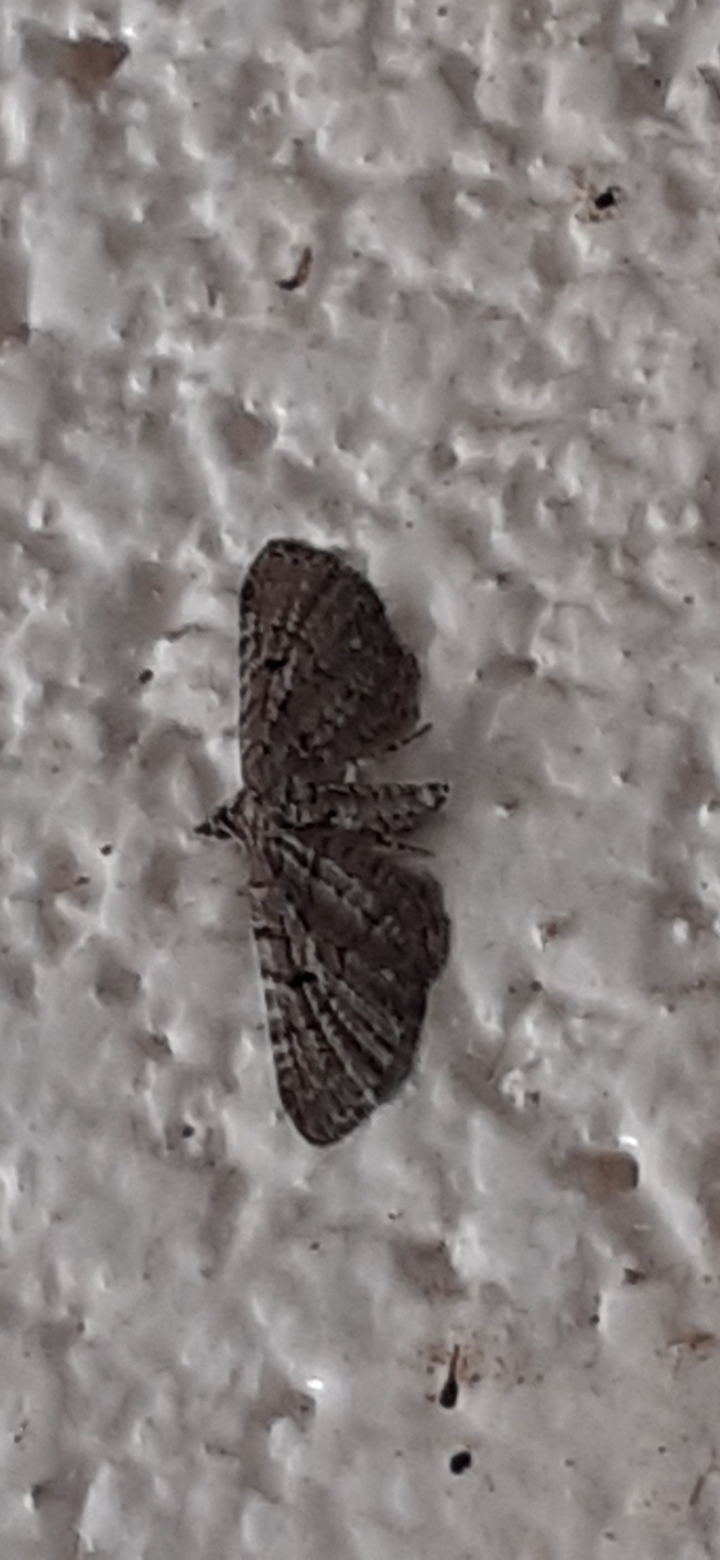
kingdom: Animalia
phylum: Arthropoda
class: Insecta
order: Lepidoptera
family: Geometridae
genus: Eupithecia
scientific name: Eupithecia intricata
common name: Freyers pug
